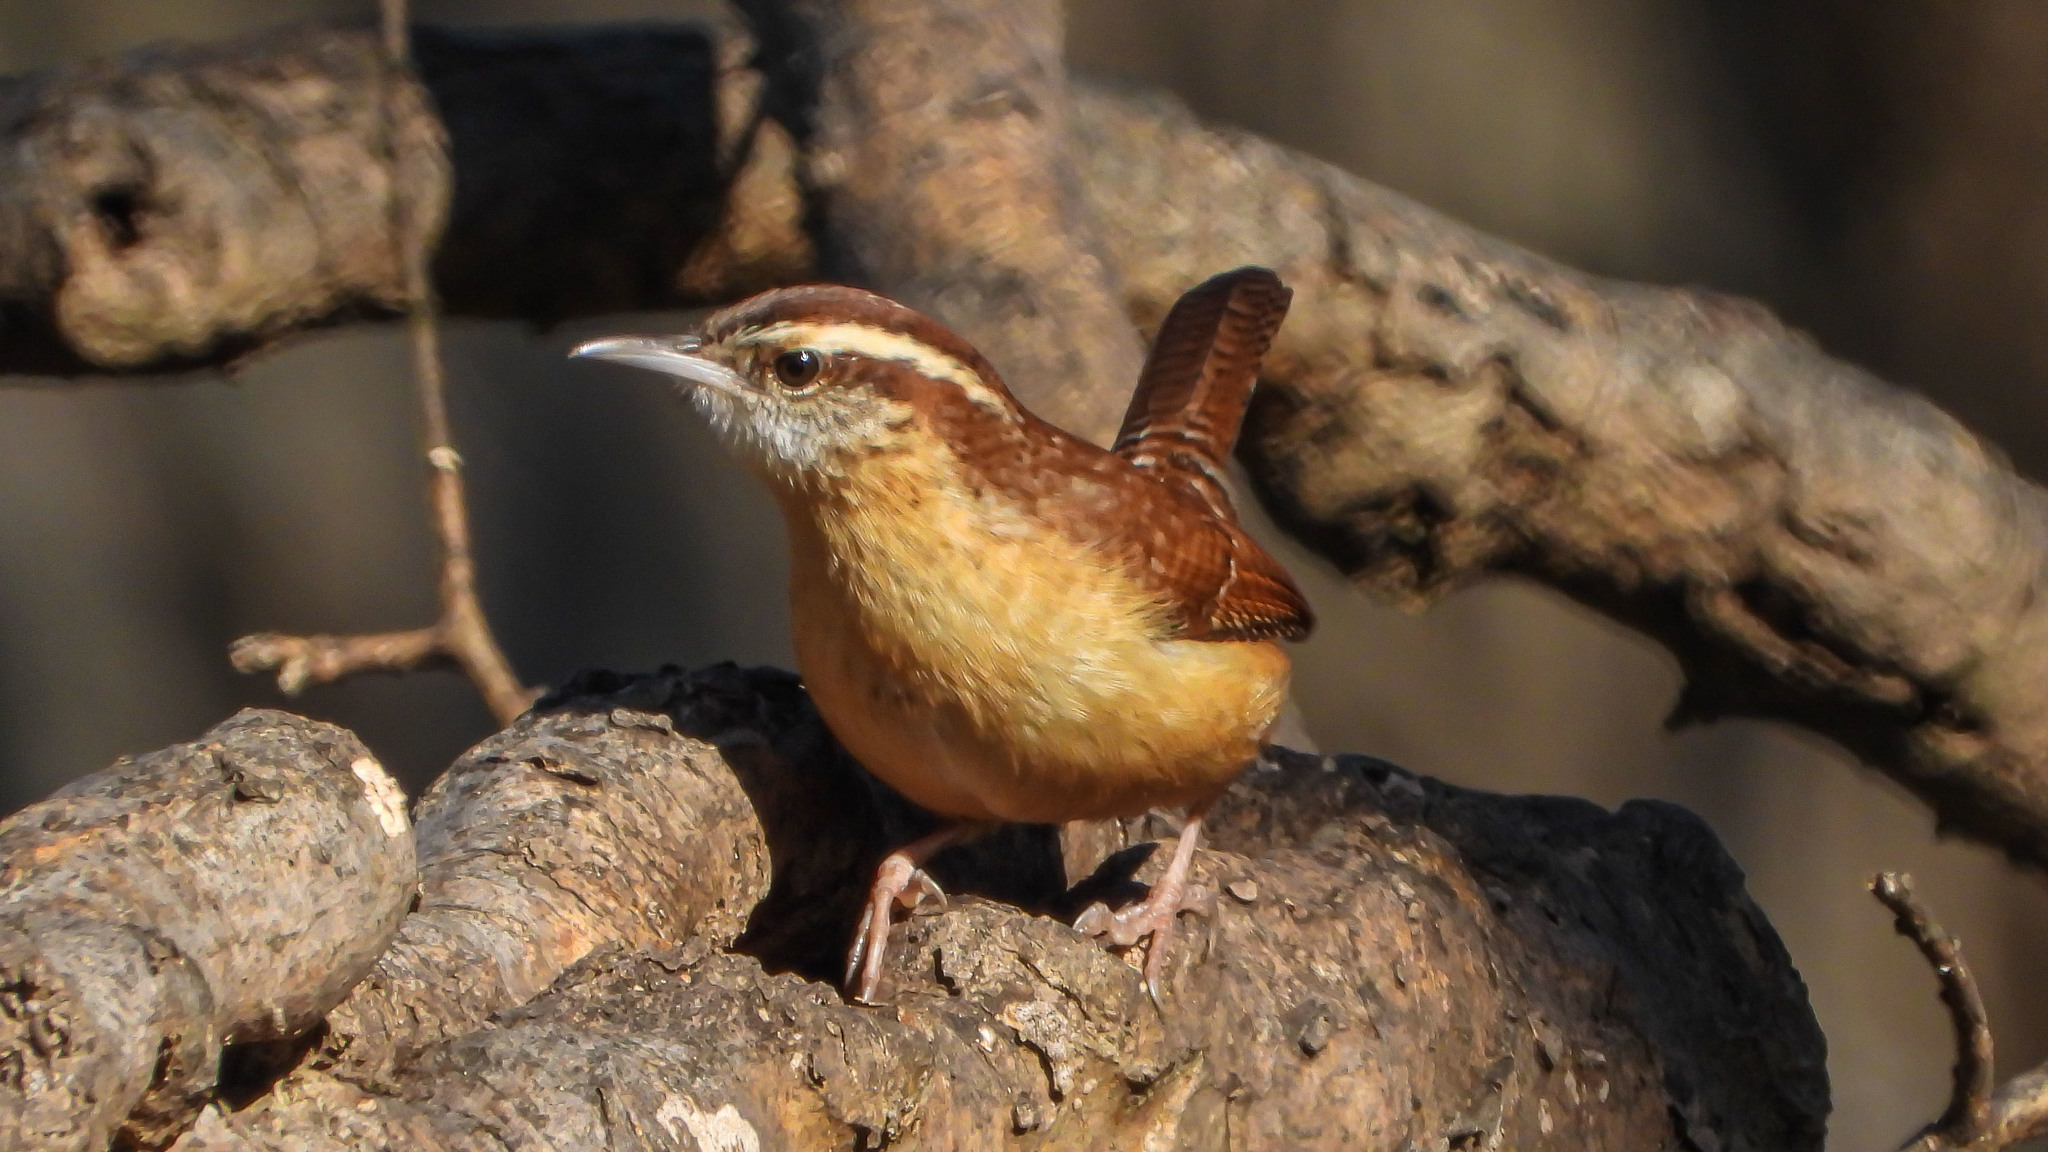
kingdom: Animalia
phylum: Chordata
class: Aves
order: Passeriformes
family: Troglodytidae
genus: Thryothorus
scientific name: Thryothorus ludovicianus
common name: Carolina wren
